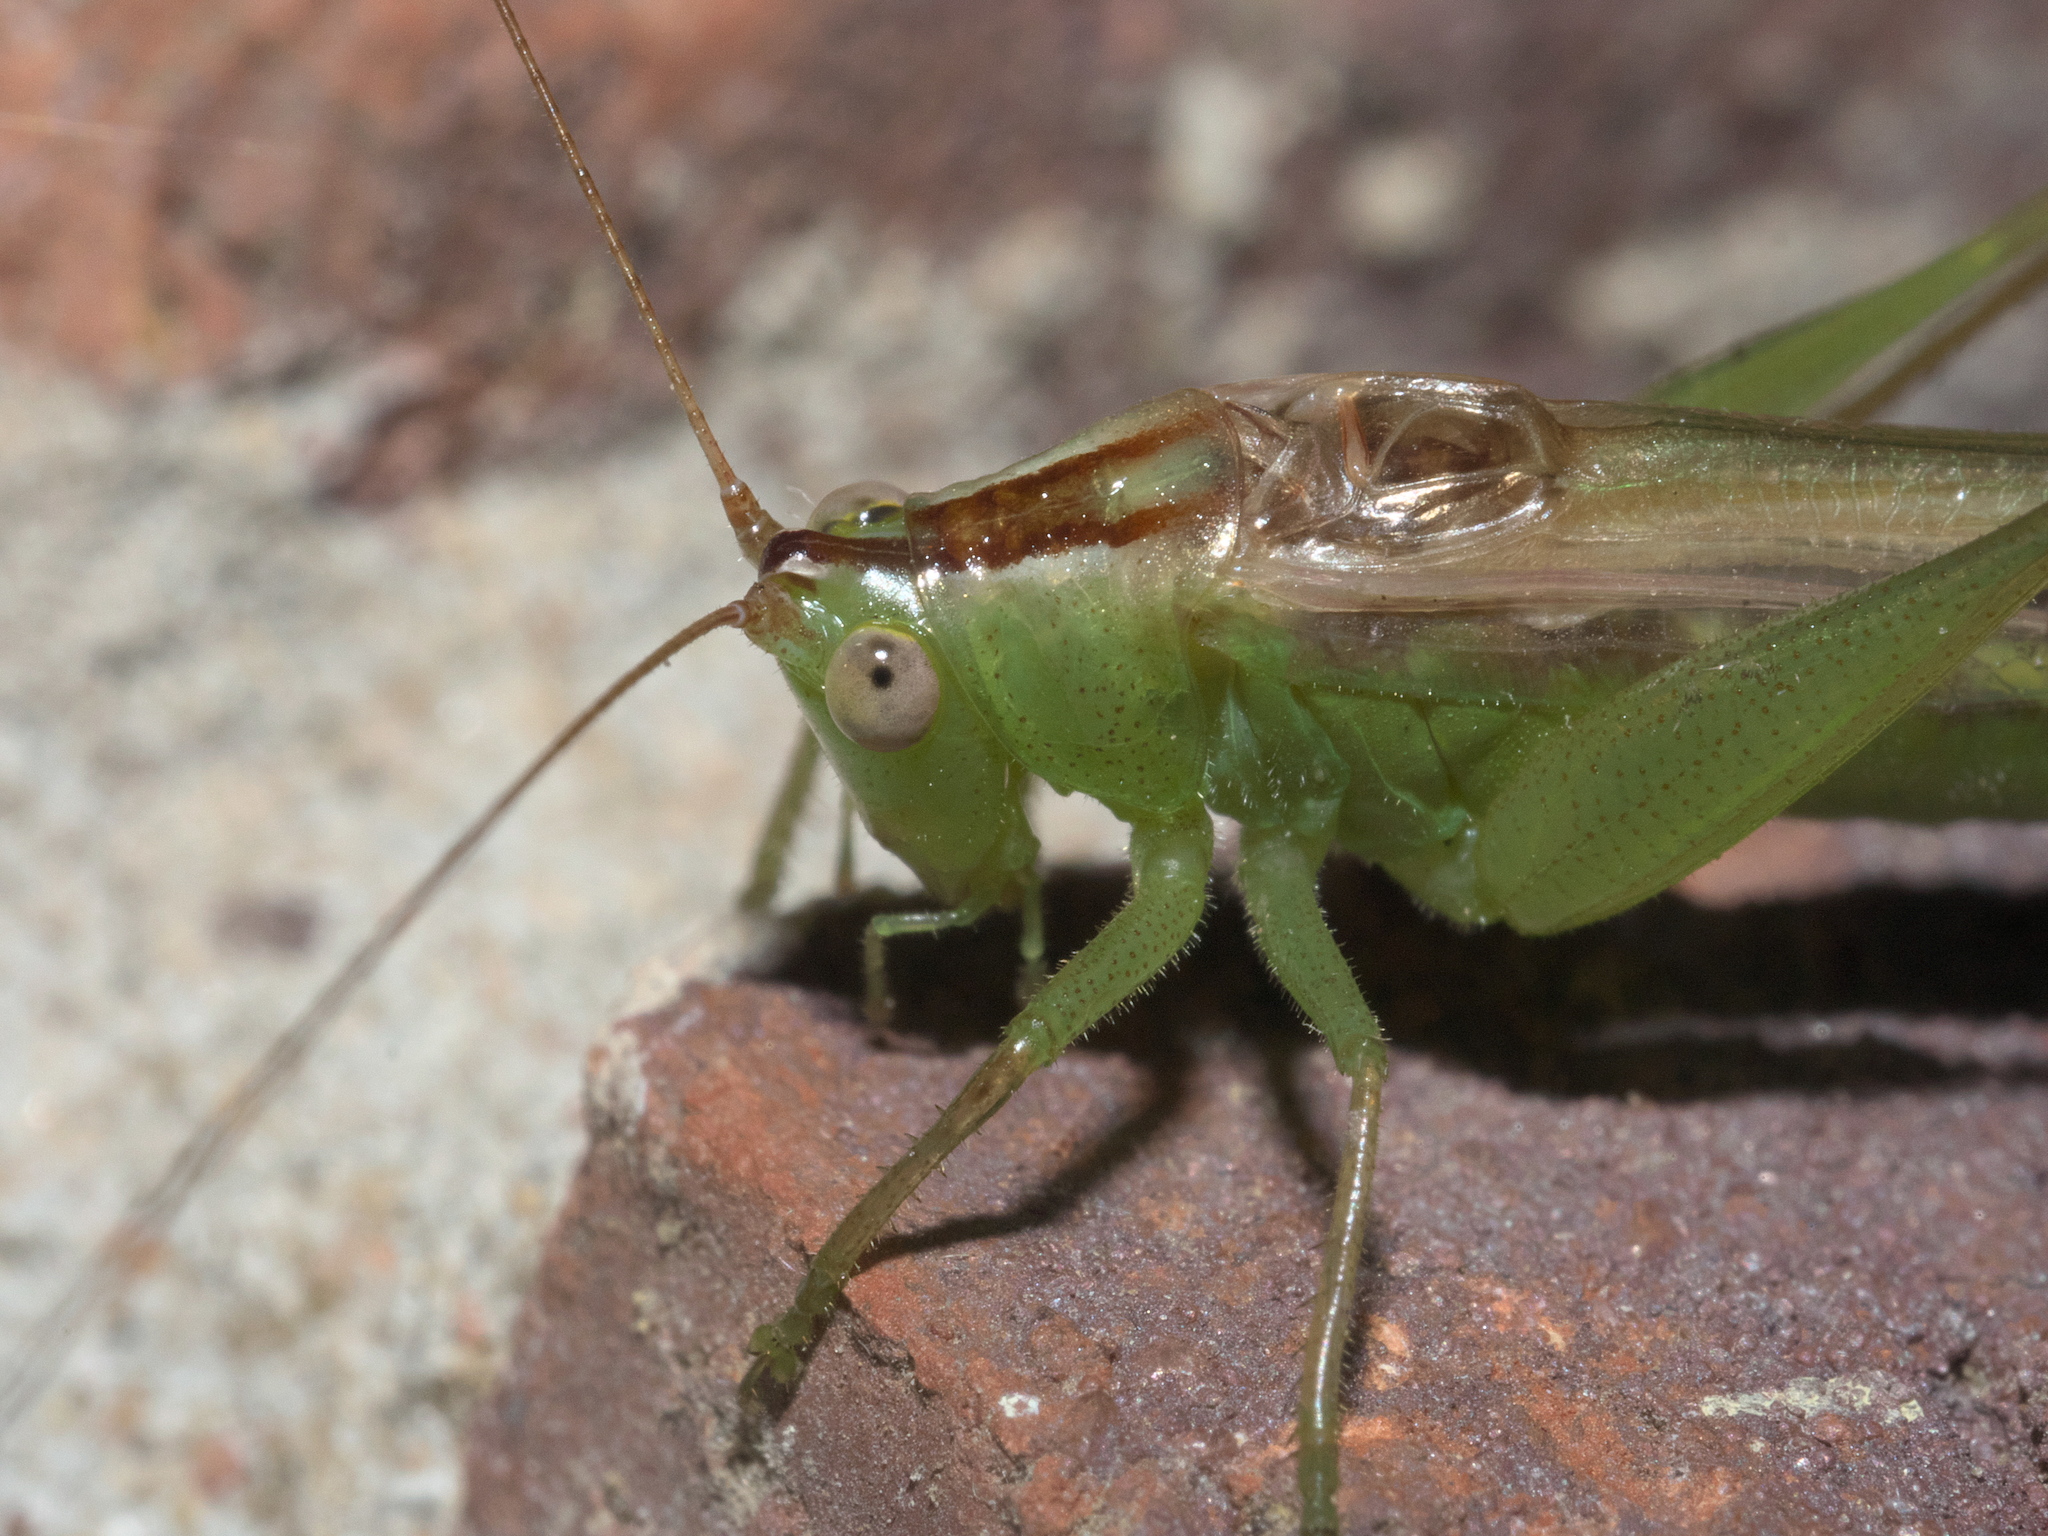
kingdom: Animalia
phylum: Arthropoda
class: Insecta
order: Orthoptera
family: Tettigoniidae
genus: Conocephalus
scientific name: Conocephalus fasciatus
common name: Slender meadow katydid
